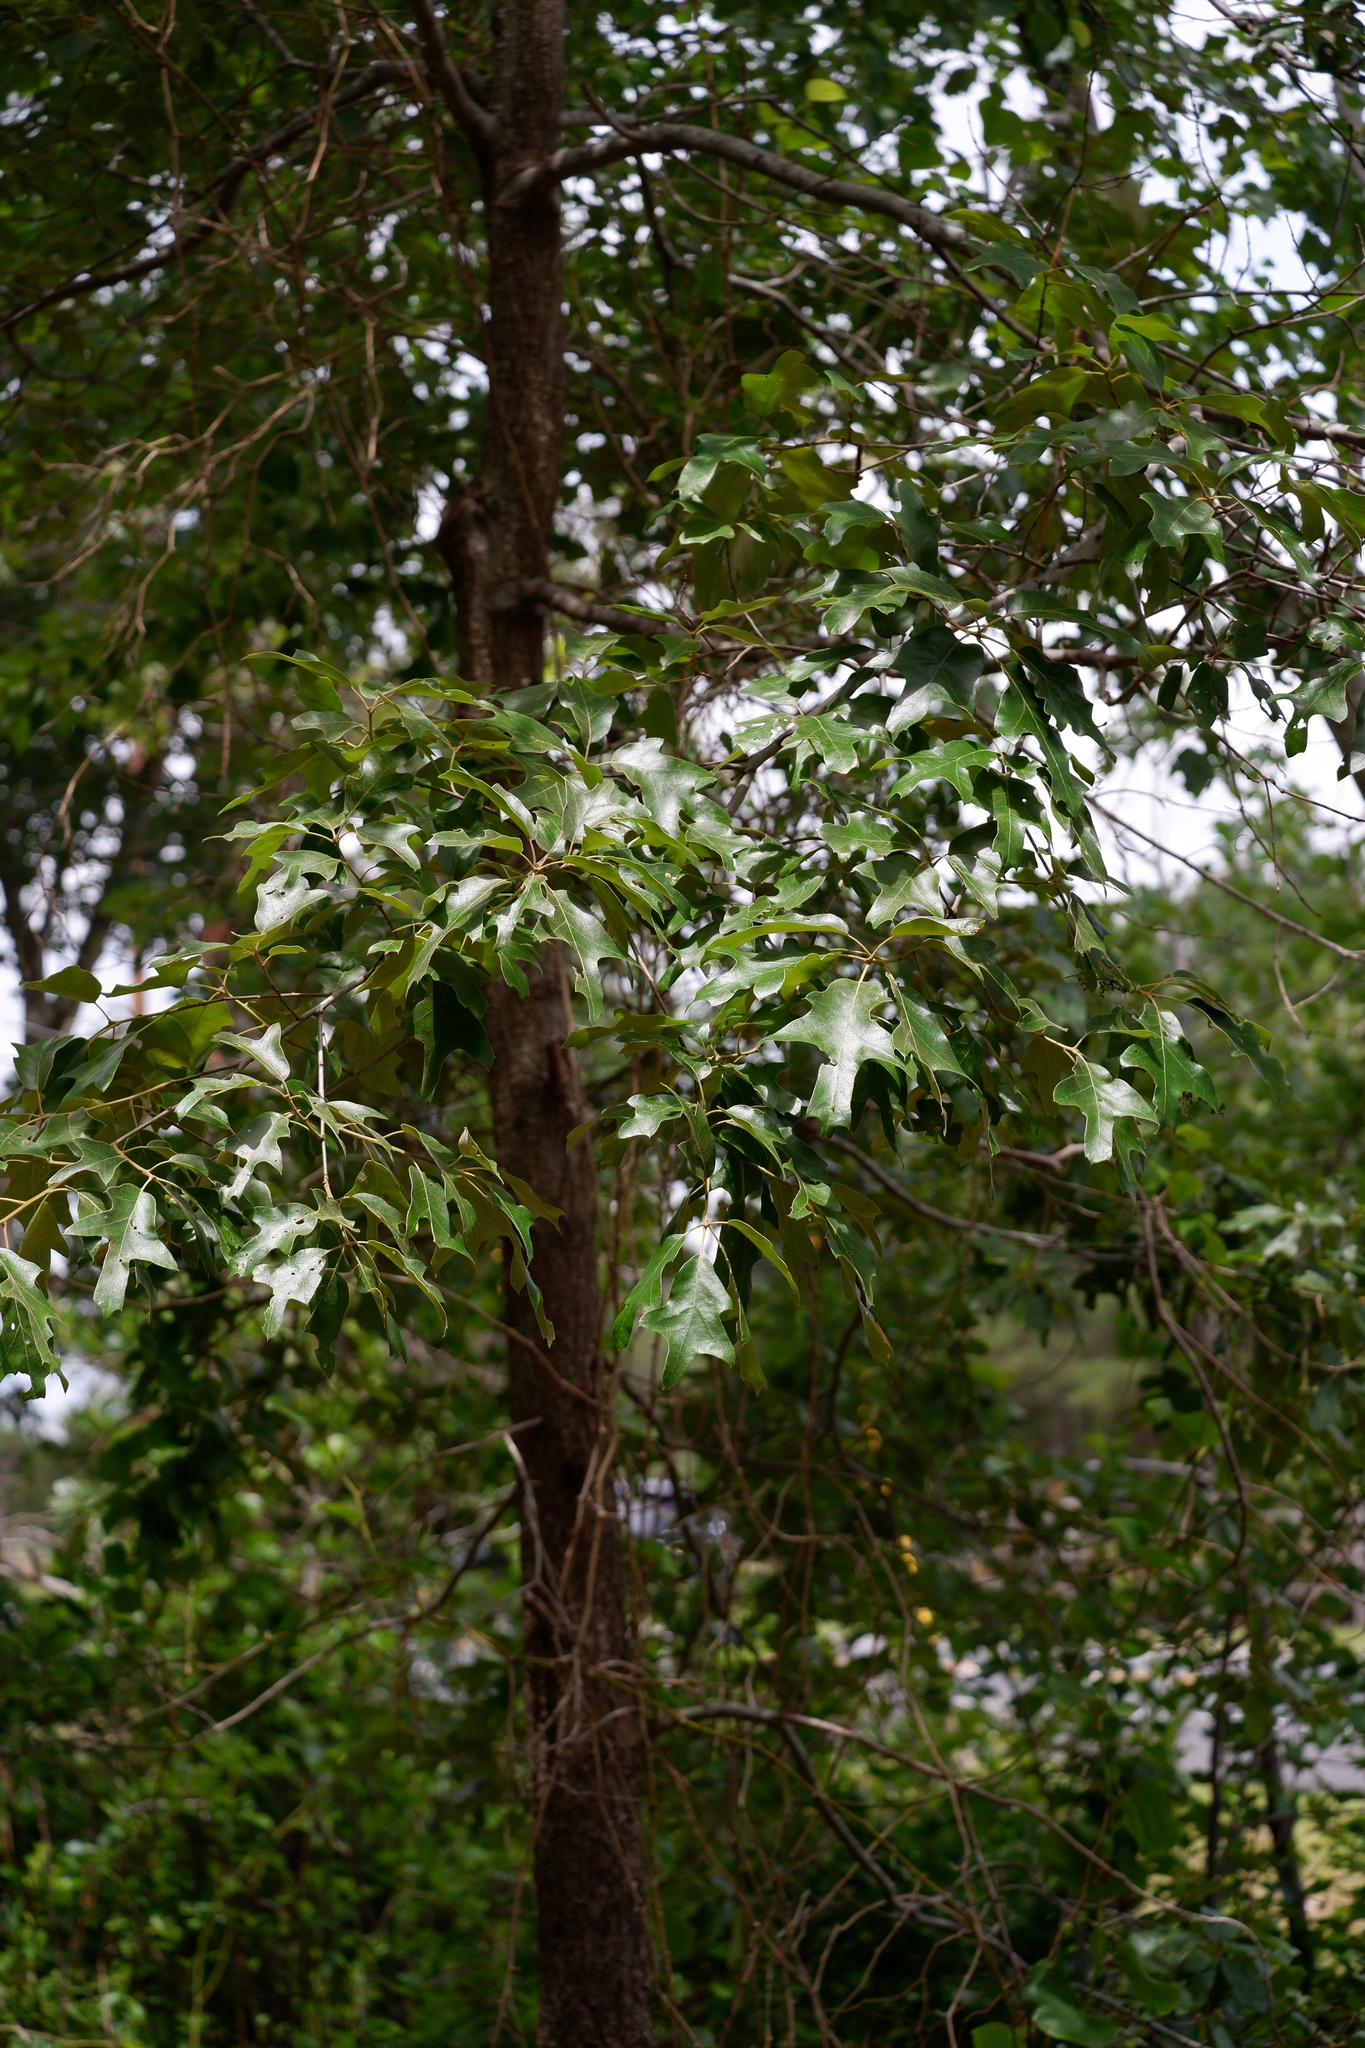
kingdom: Plantae
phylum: Tracheophyta
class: Magnoliopsida
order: Fagales
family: Fagaceae
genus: Quercus
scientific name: Quercus falcata
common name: Southern red oak
